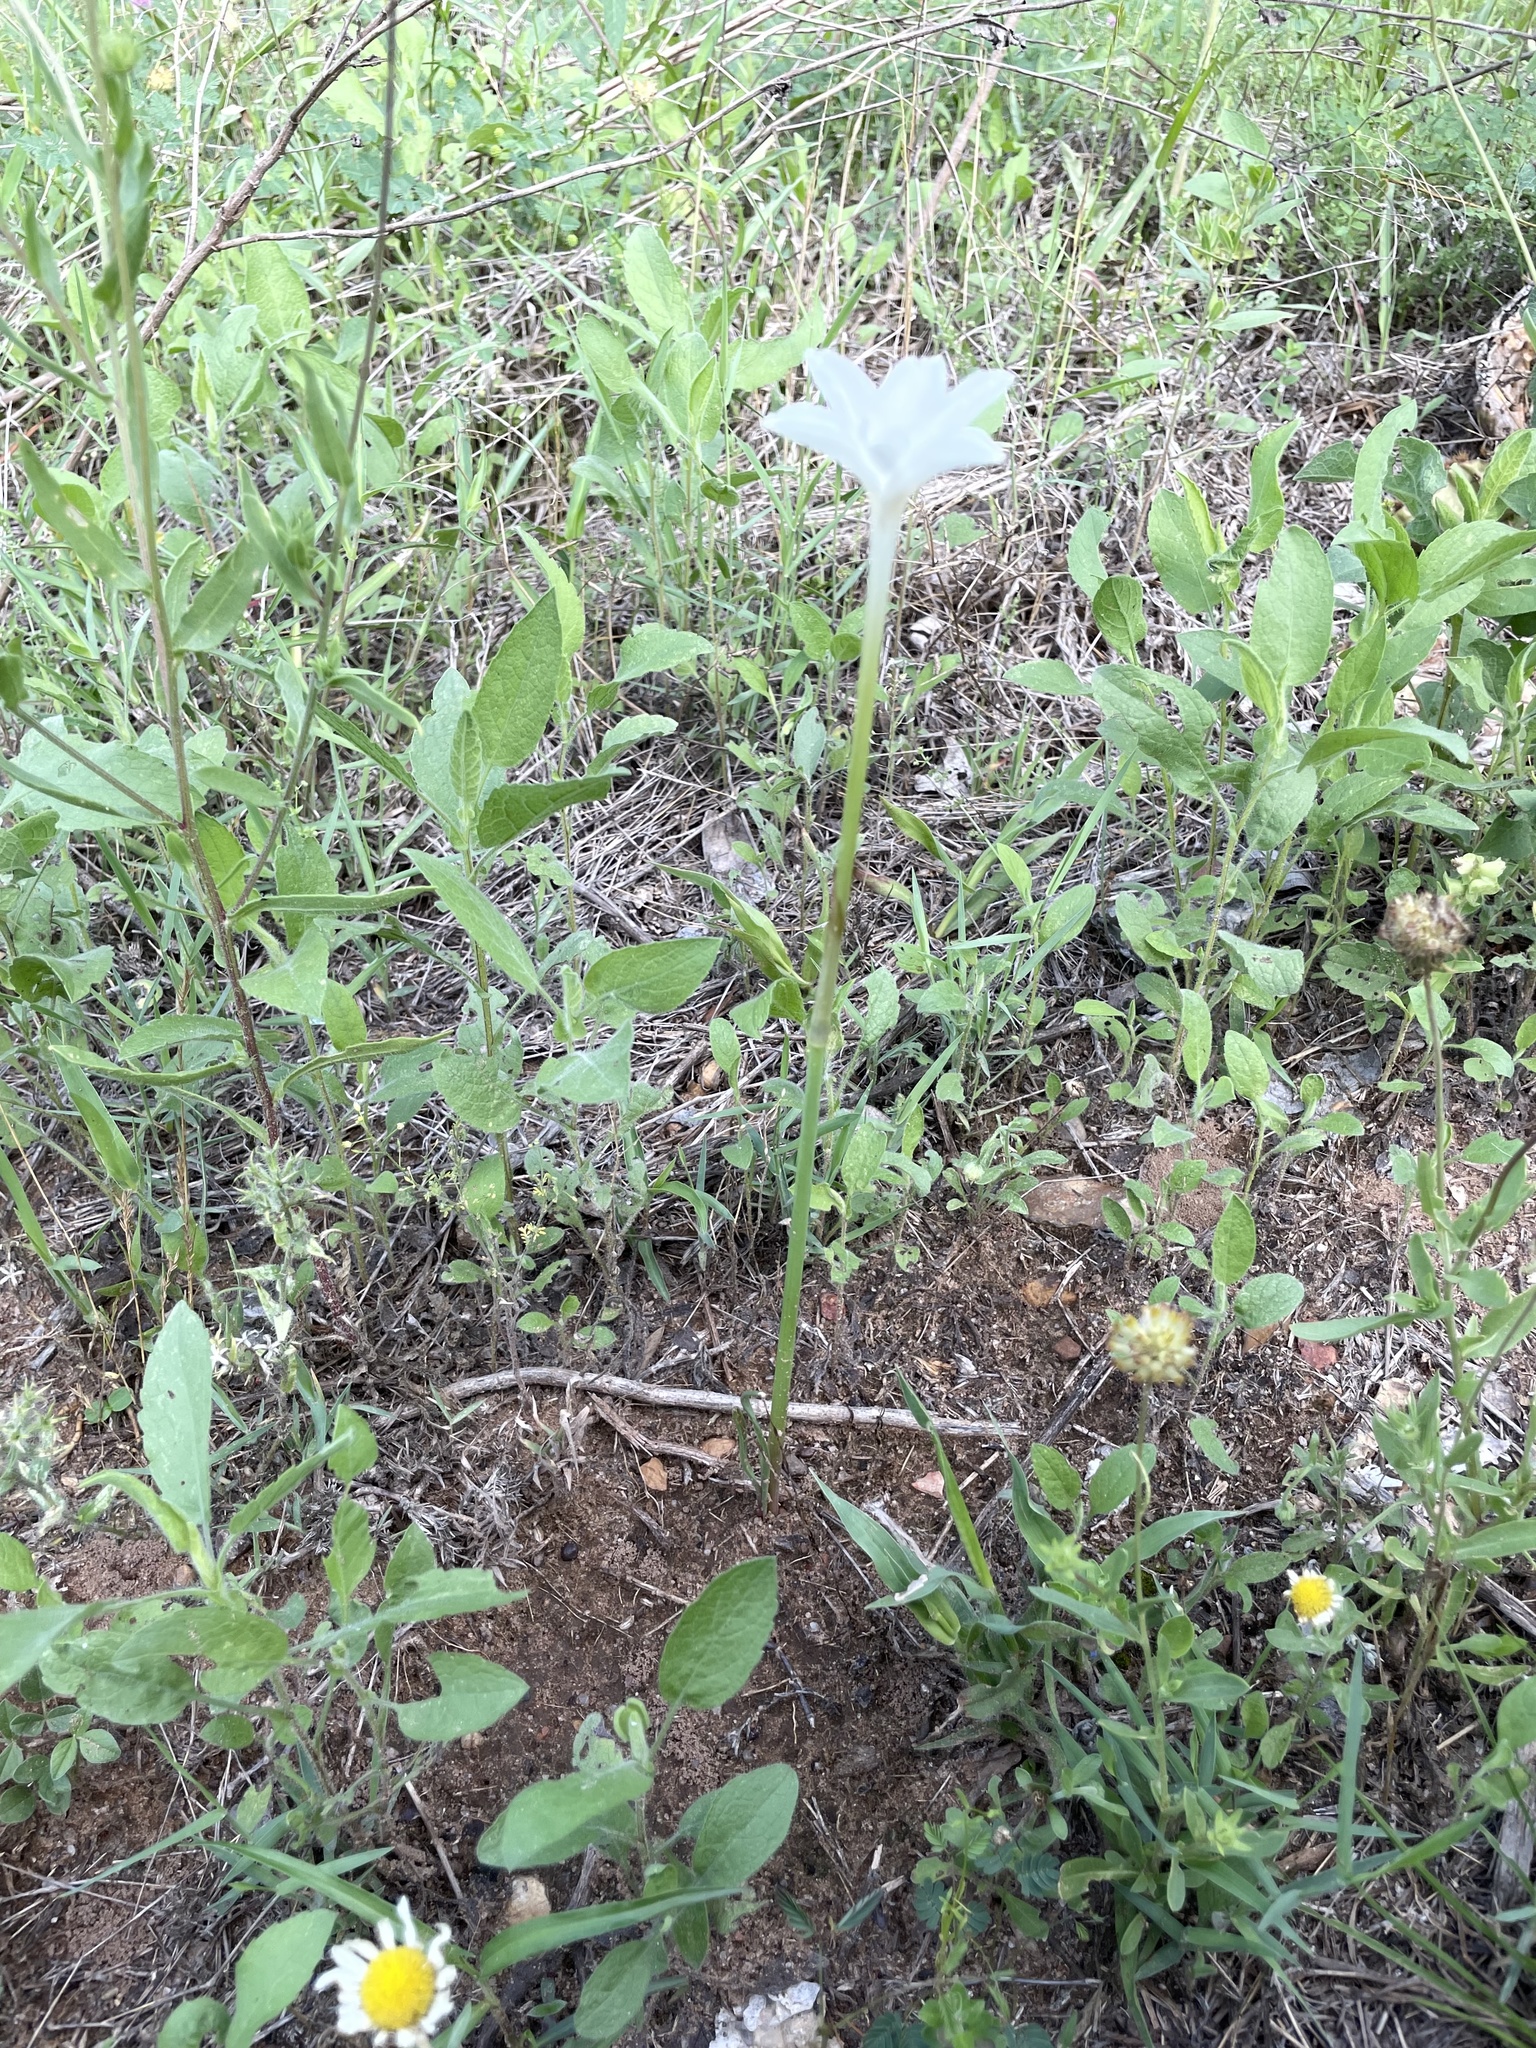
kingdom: Plantae
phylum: Tracheophyta
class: Liliopsida
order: Asparagales
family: Amaryllidaceae
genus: Zephyranthes
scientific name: Zephyranthes chlorosolen
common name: Evening rain-lily
